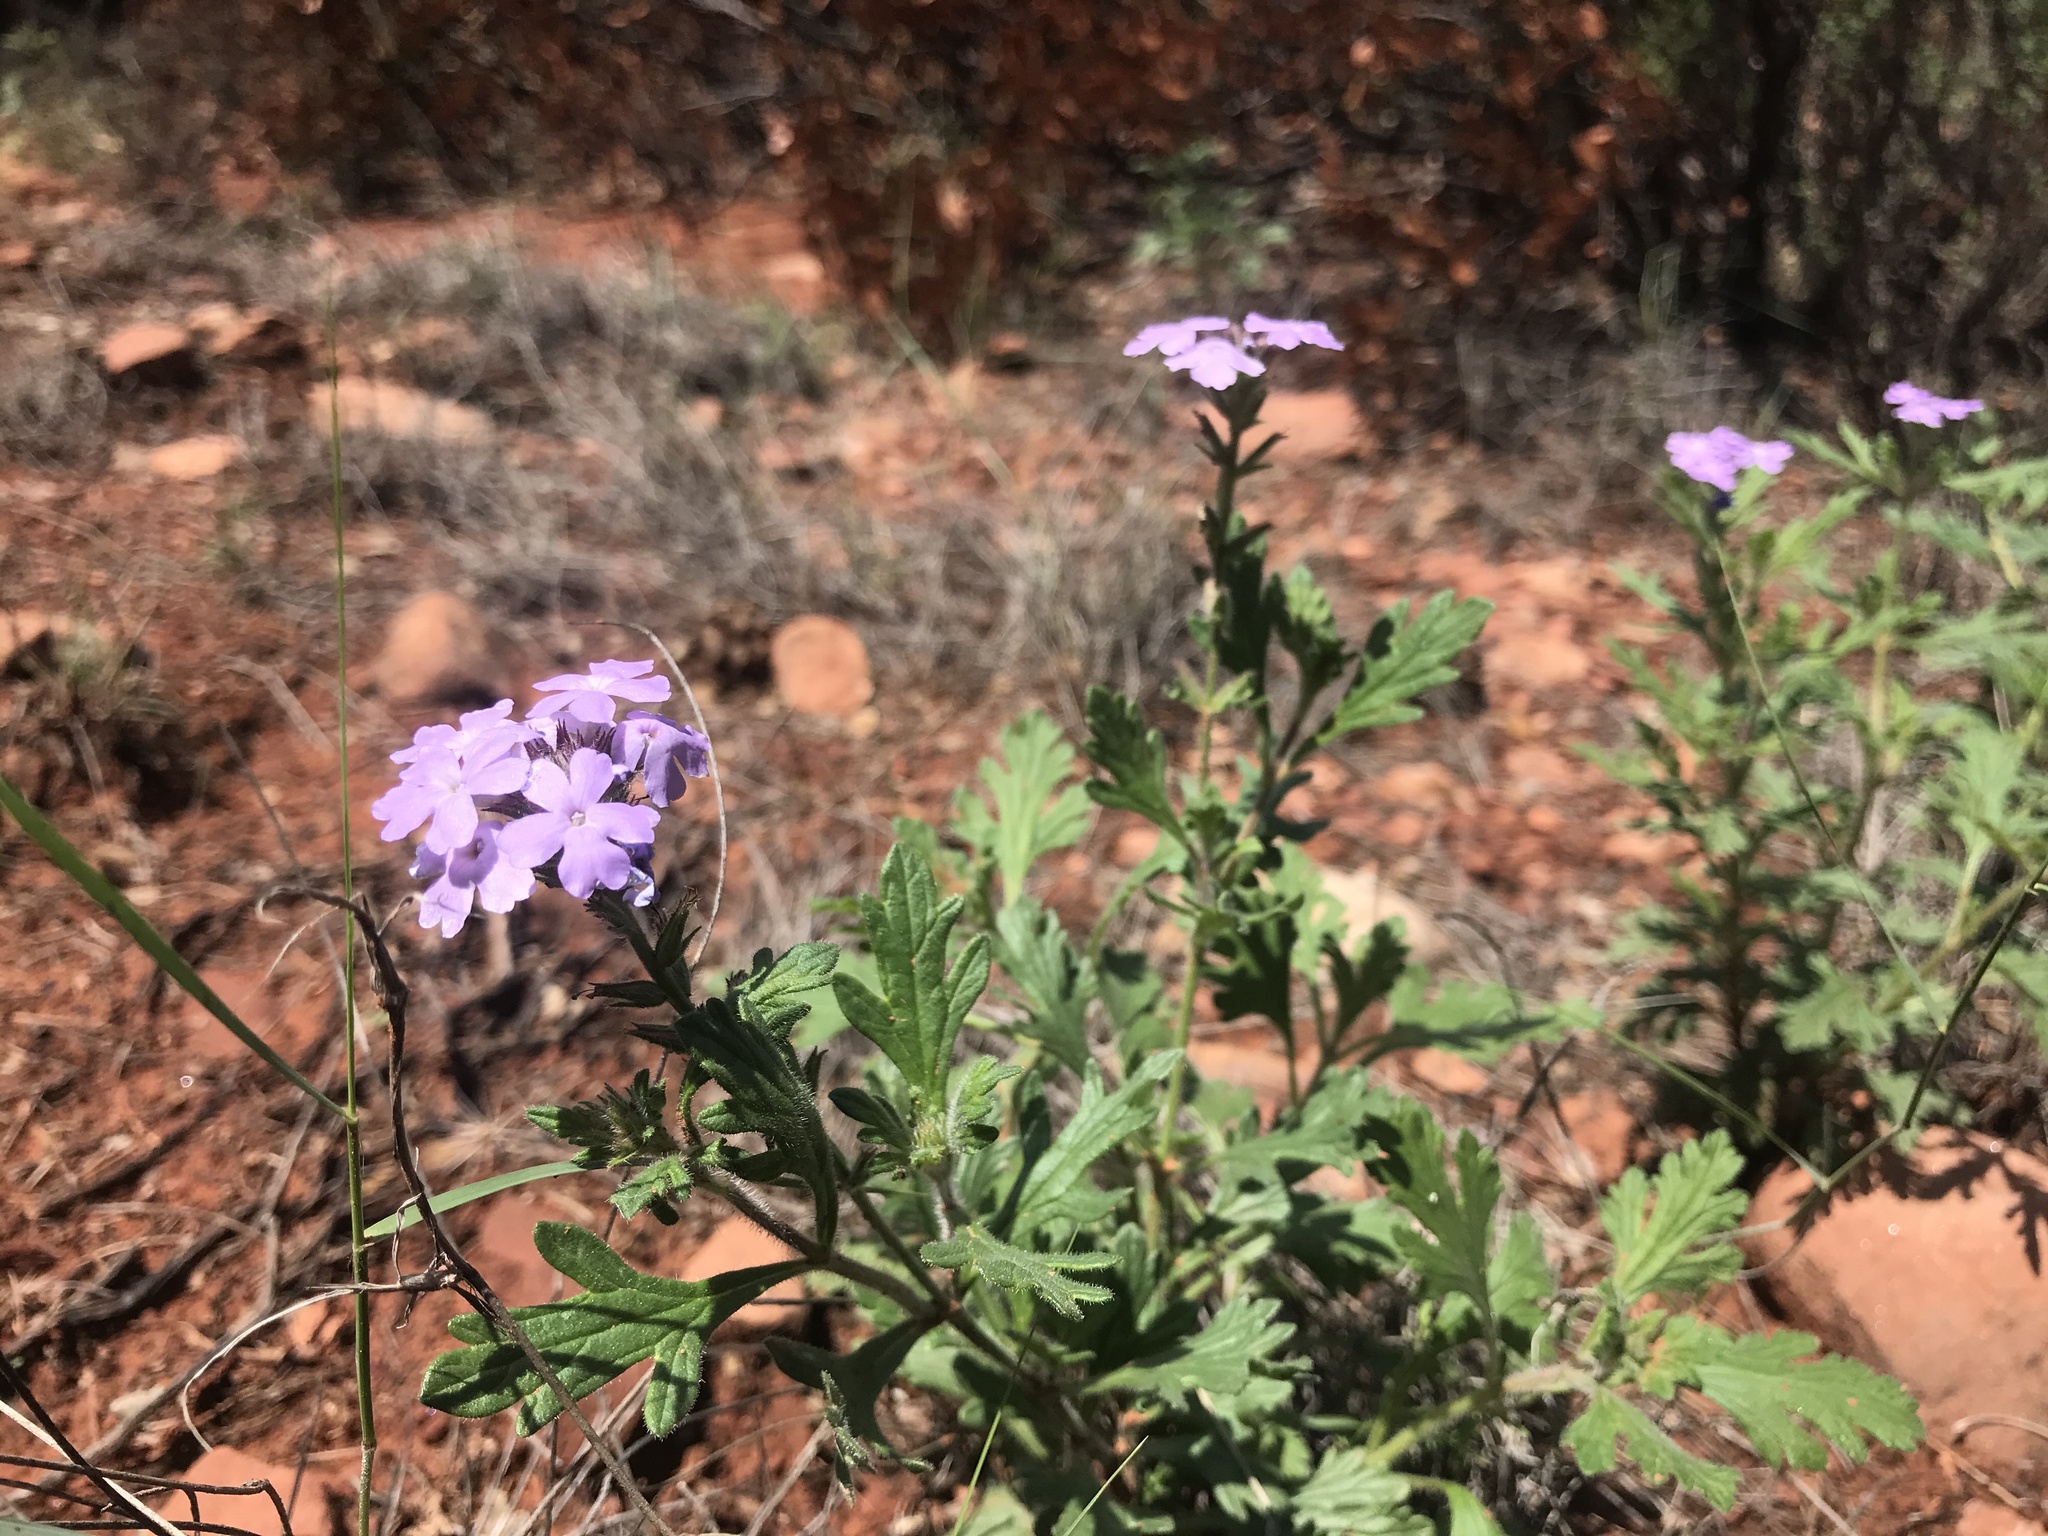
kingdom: Plantae
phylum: Tracheophyta
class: Magnoliopsida
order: Lamiales
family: Verbenaceae
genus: Verbena
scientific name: Verbena gooddingii
